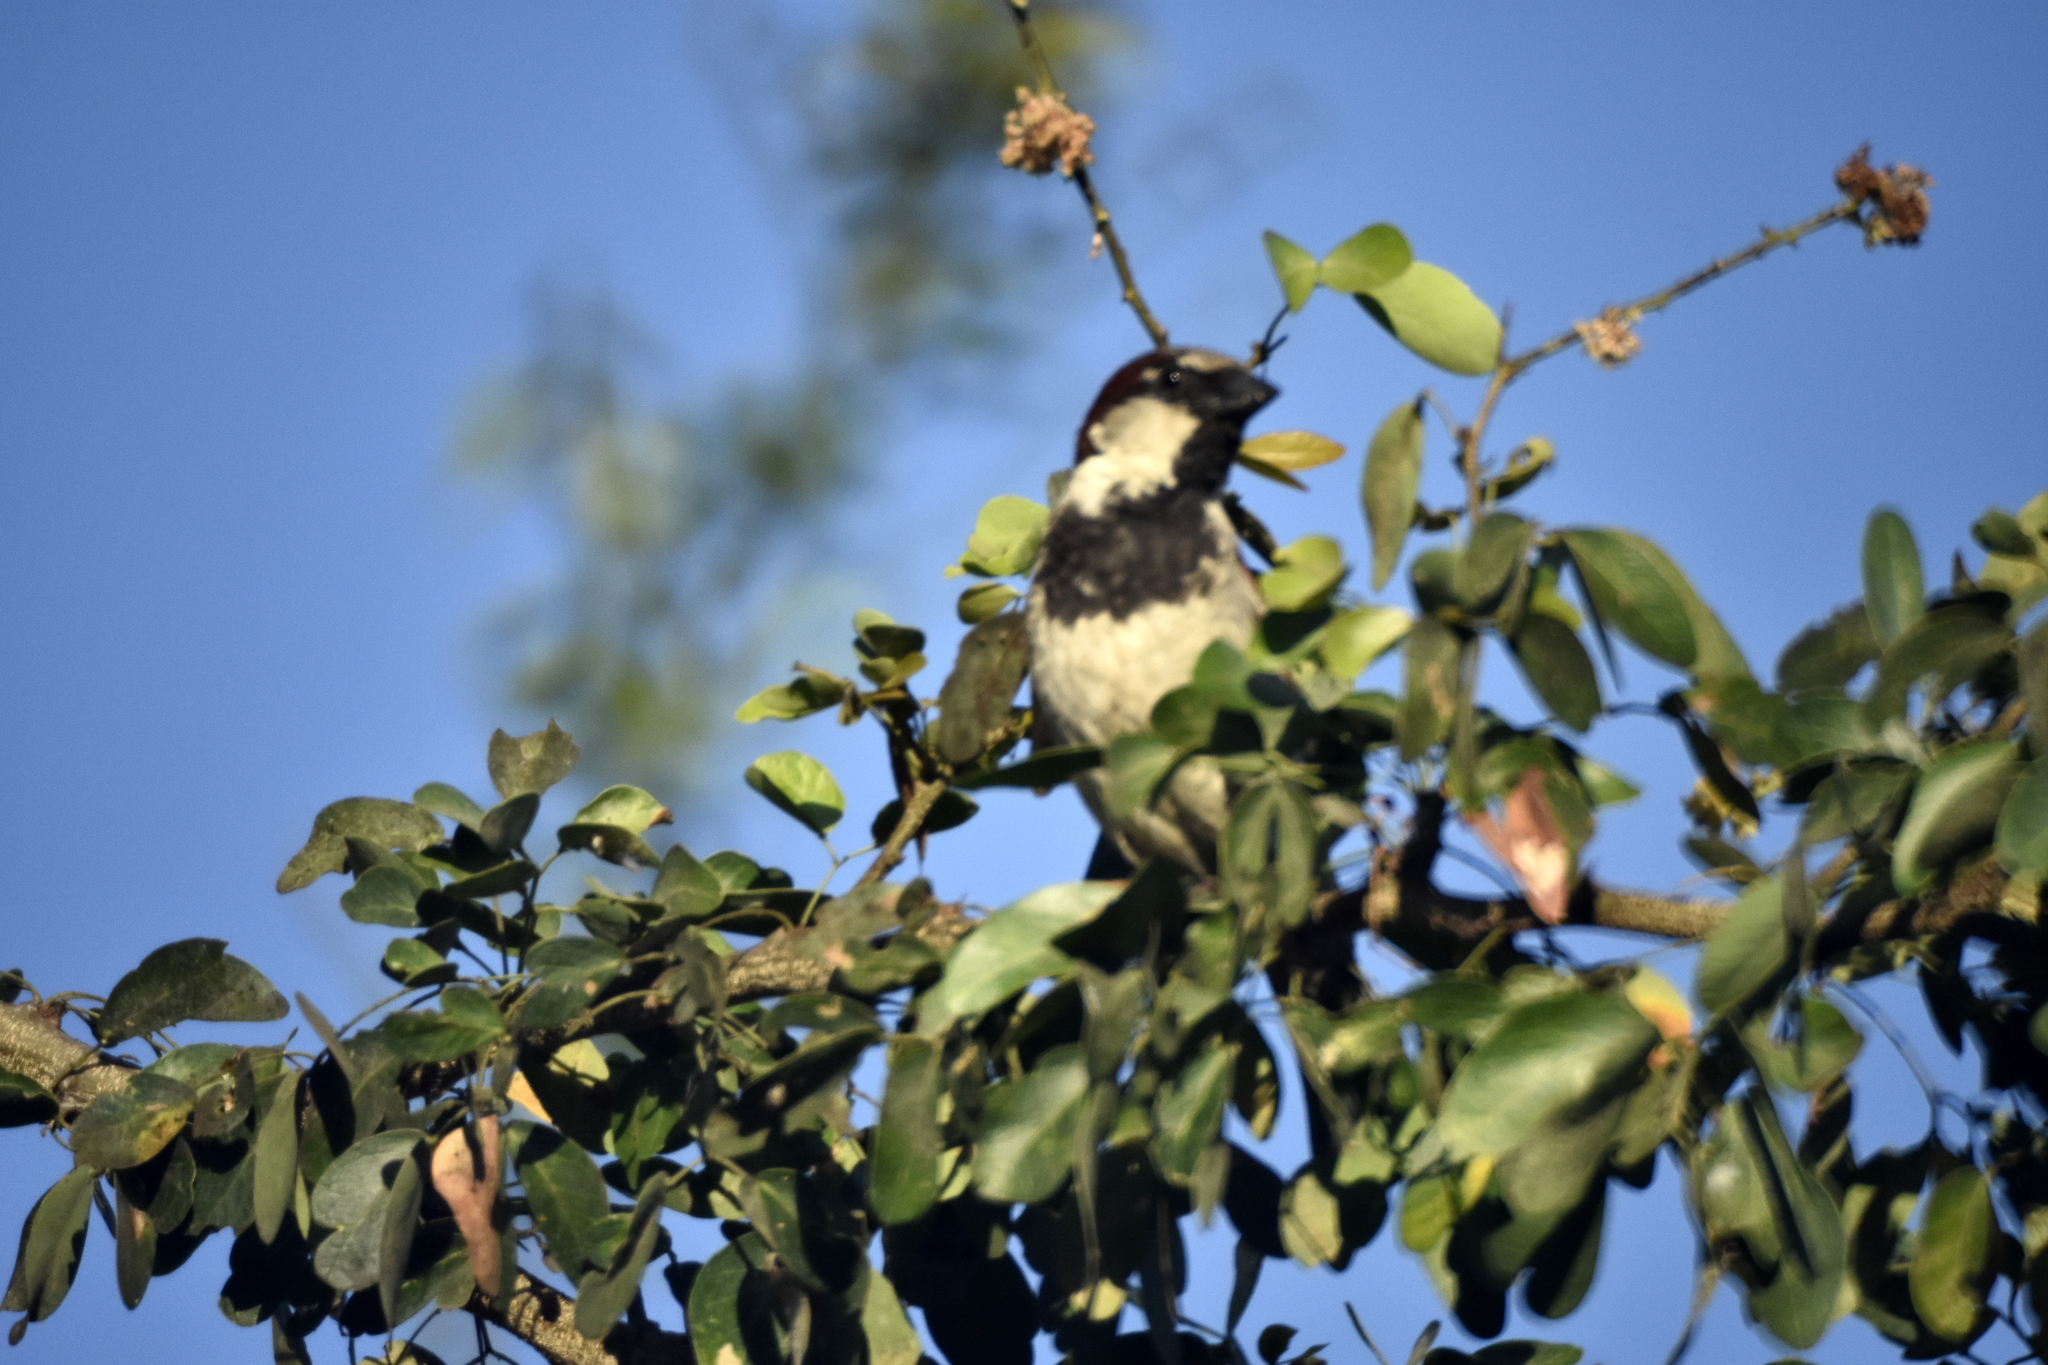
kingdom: Animalia
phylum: Chordata
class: Aves
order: Passeriformes
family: Passeridae
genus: Passer
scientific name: Passer domesticus
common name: House sparrow
